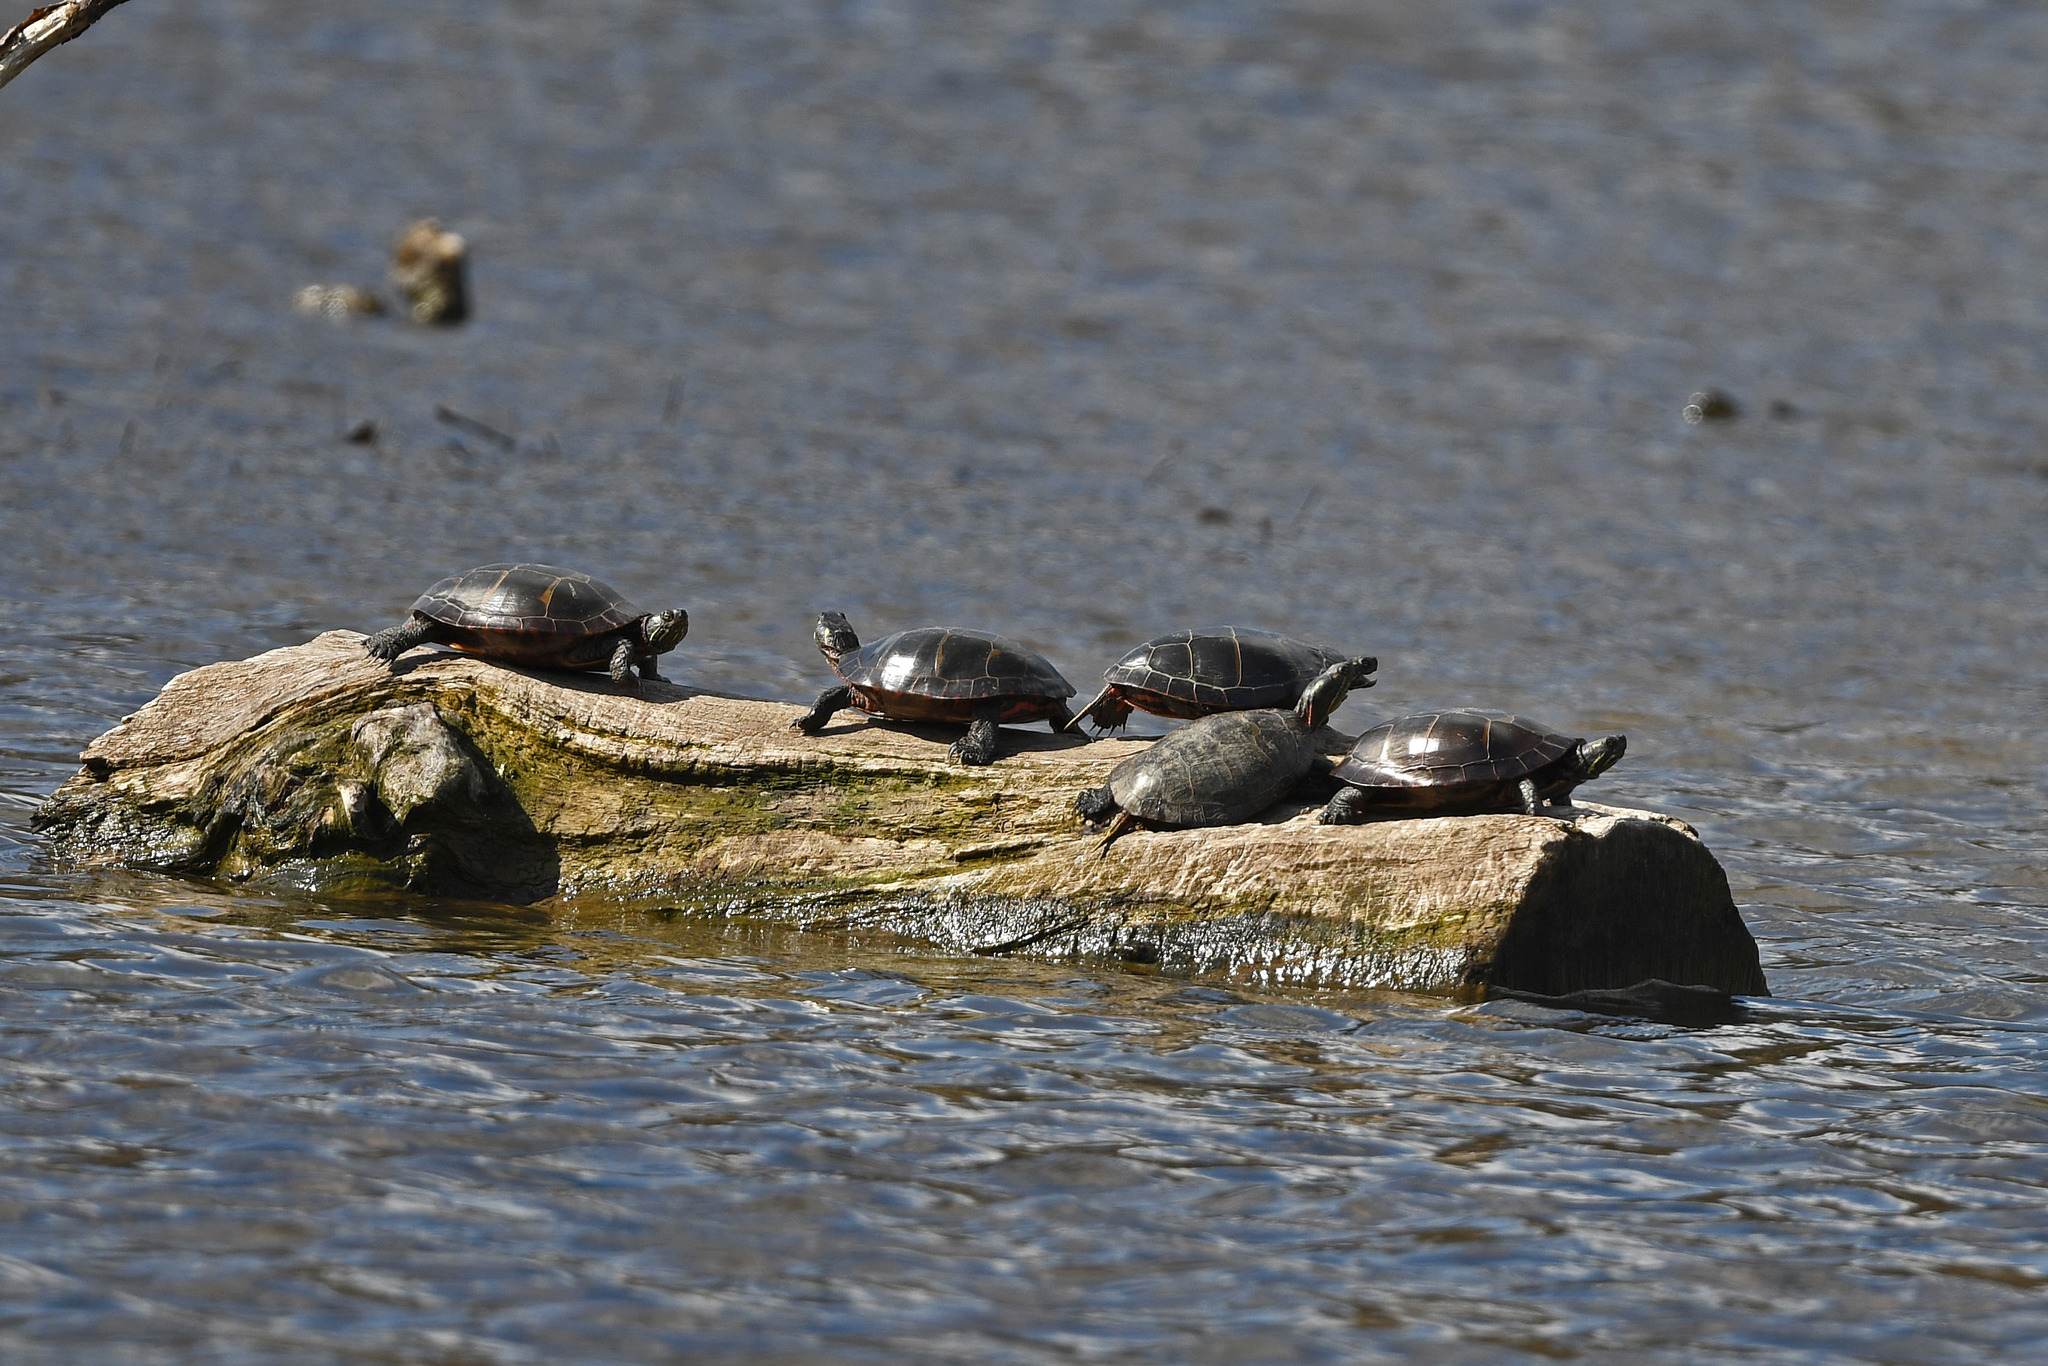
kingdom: Animalia
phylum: Chordata
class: Testudines
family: Emydidae
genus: Chrysemys
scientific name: Chrysemys picta
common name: Painted turtle
